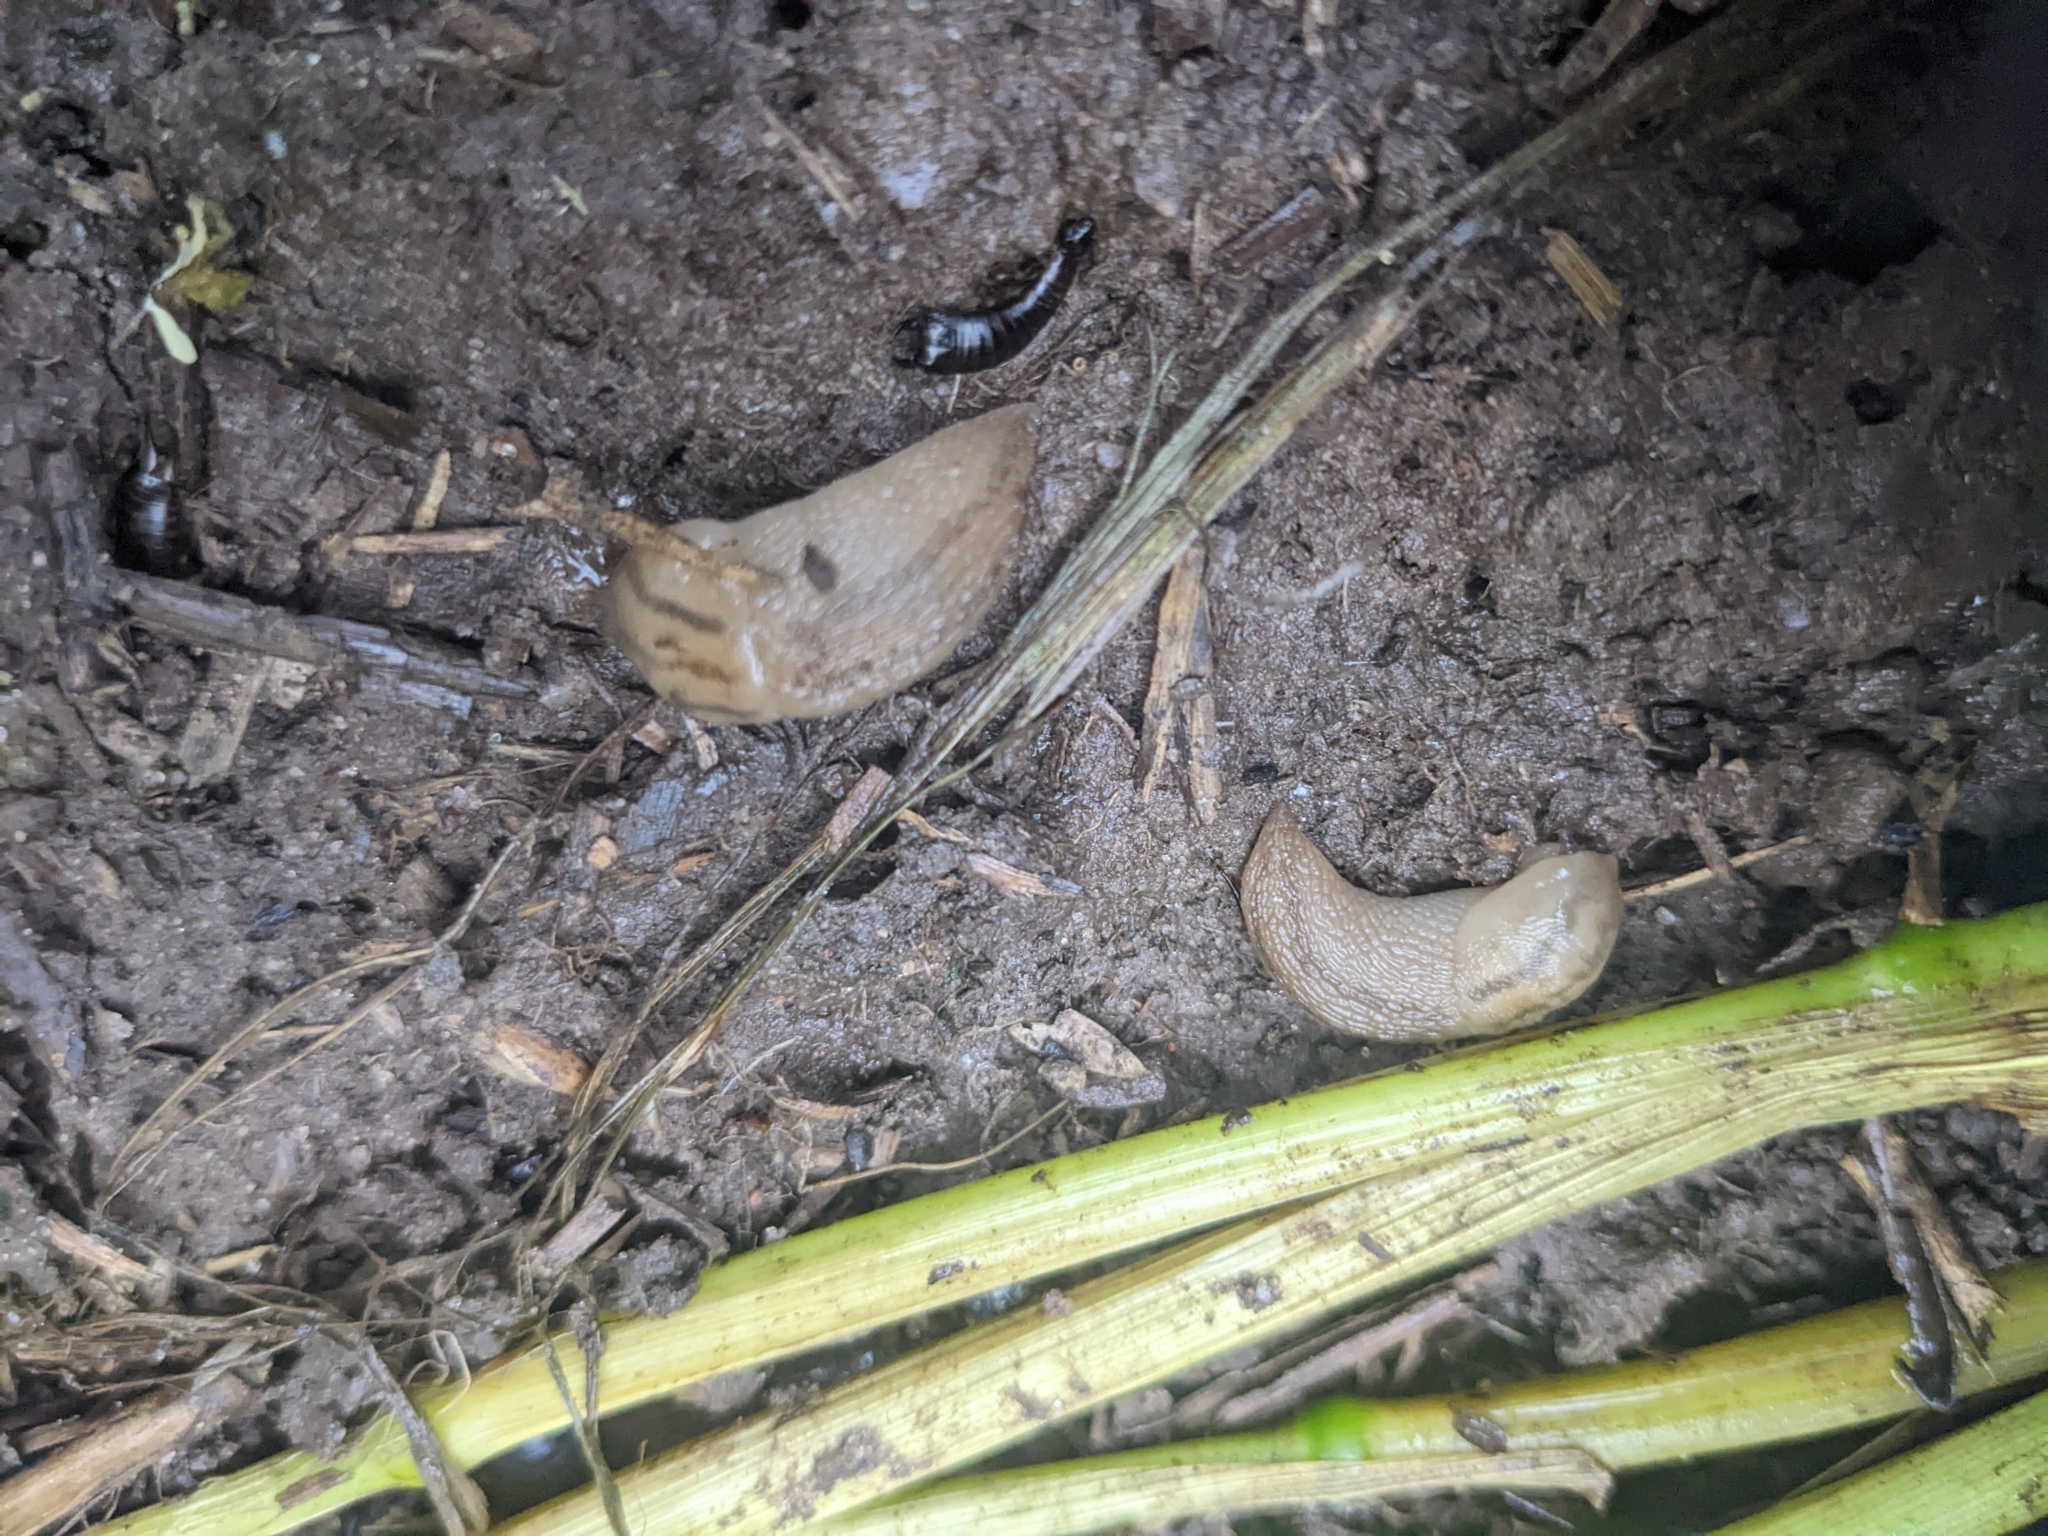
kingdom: Animalia
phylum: Mollusca
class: Gastropoda
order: Stylommatophora
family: Limacidae
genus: Ambigolimax
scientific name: Ambigolimax
